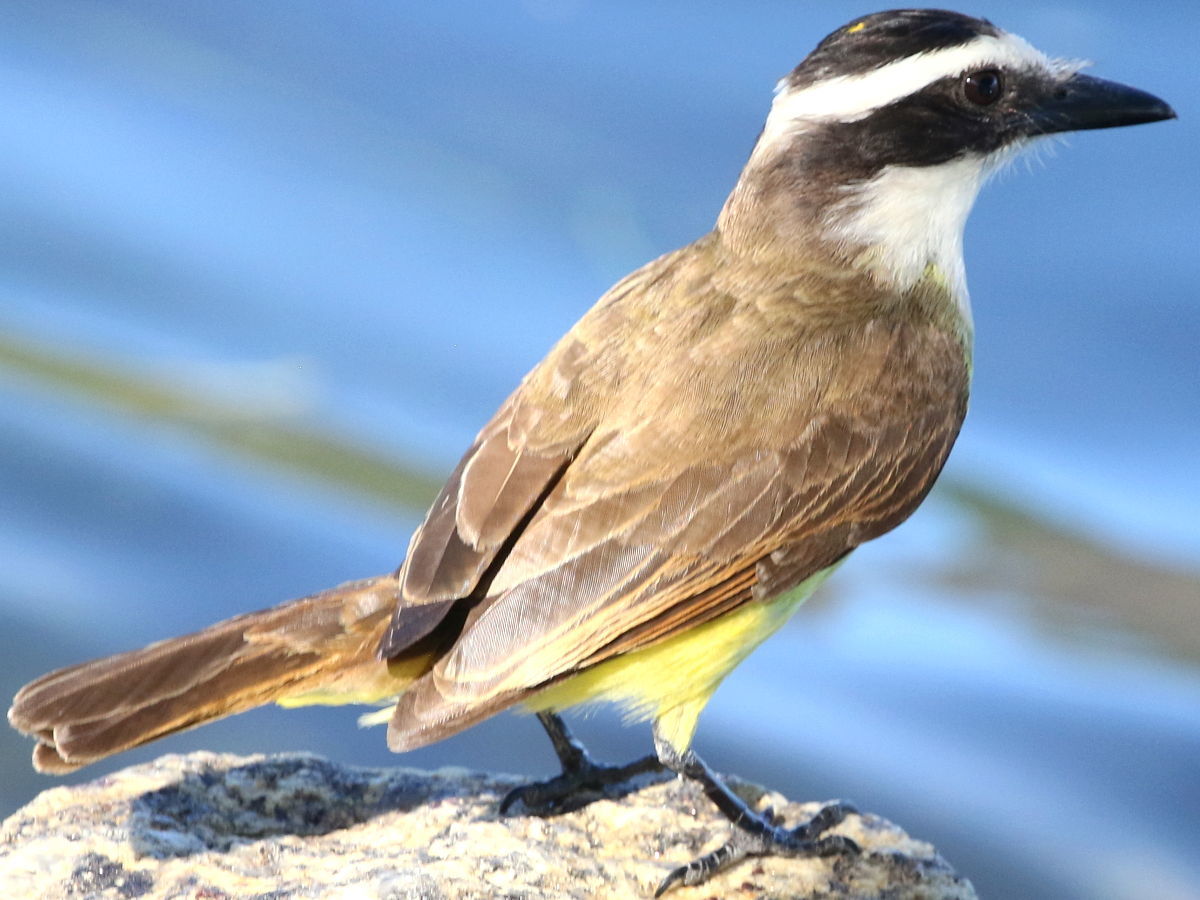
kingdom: Animalia
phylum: Chordata
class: Aves
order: Passeriformes
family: Tyrannidae
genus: Pitangus
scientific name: Pitangus sulphuratus
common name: Great kiskadee
